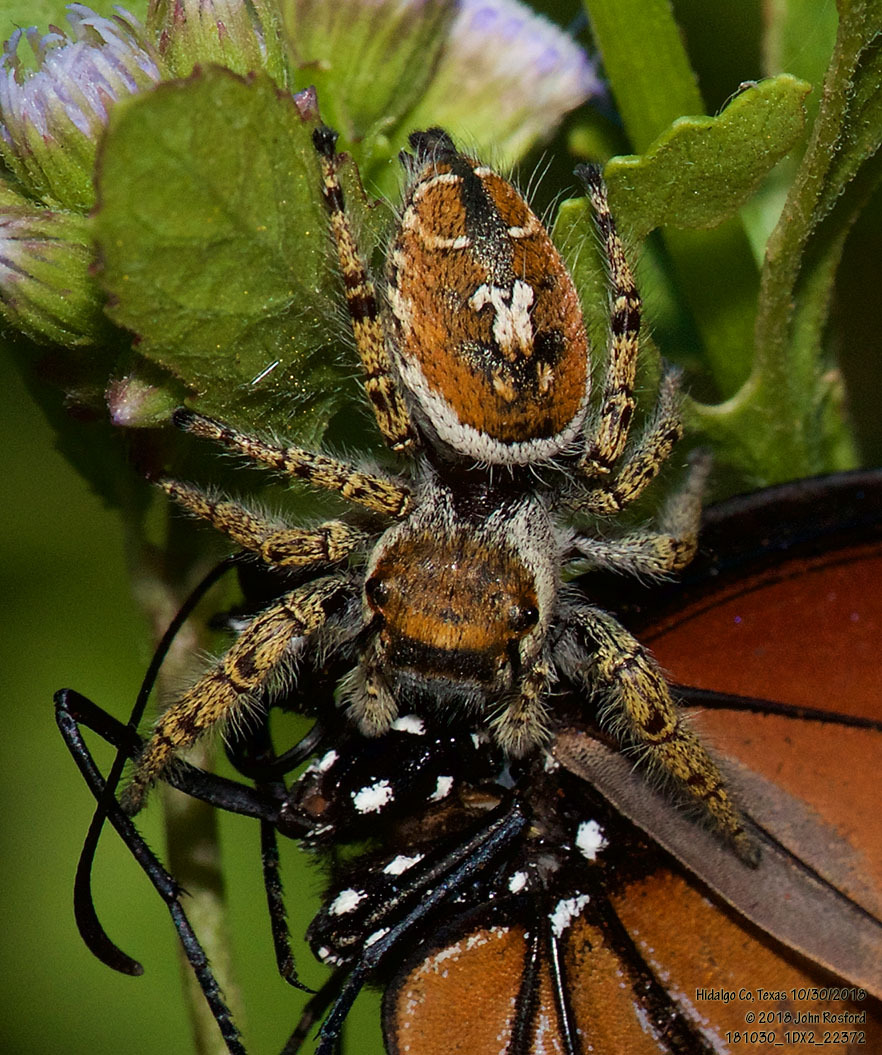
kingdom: Animalia
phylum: Arthropoda
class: Arachnida
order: Araneae
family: Salticidae
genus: Phidippus
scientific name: Phidippus arizonensis
